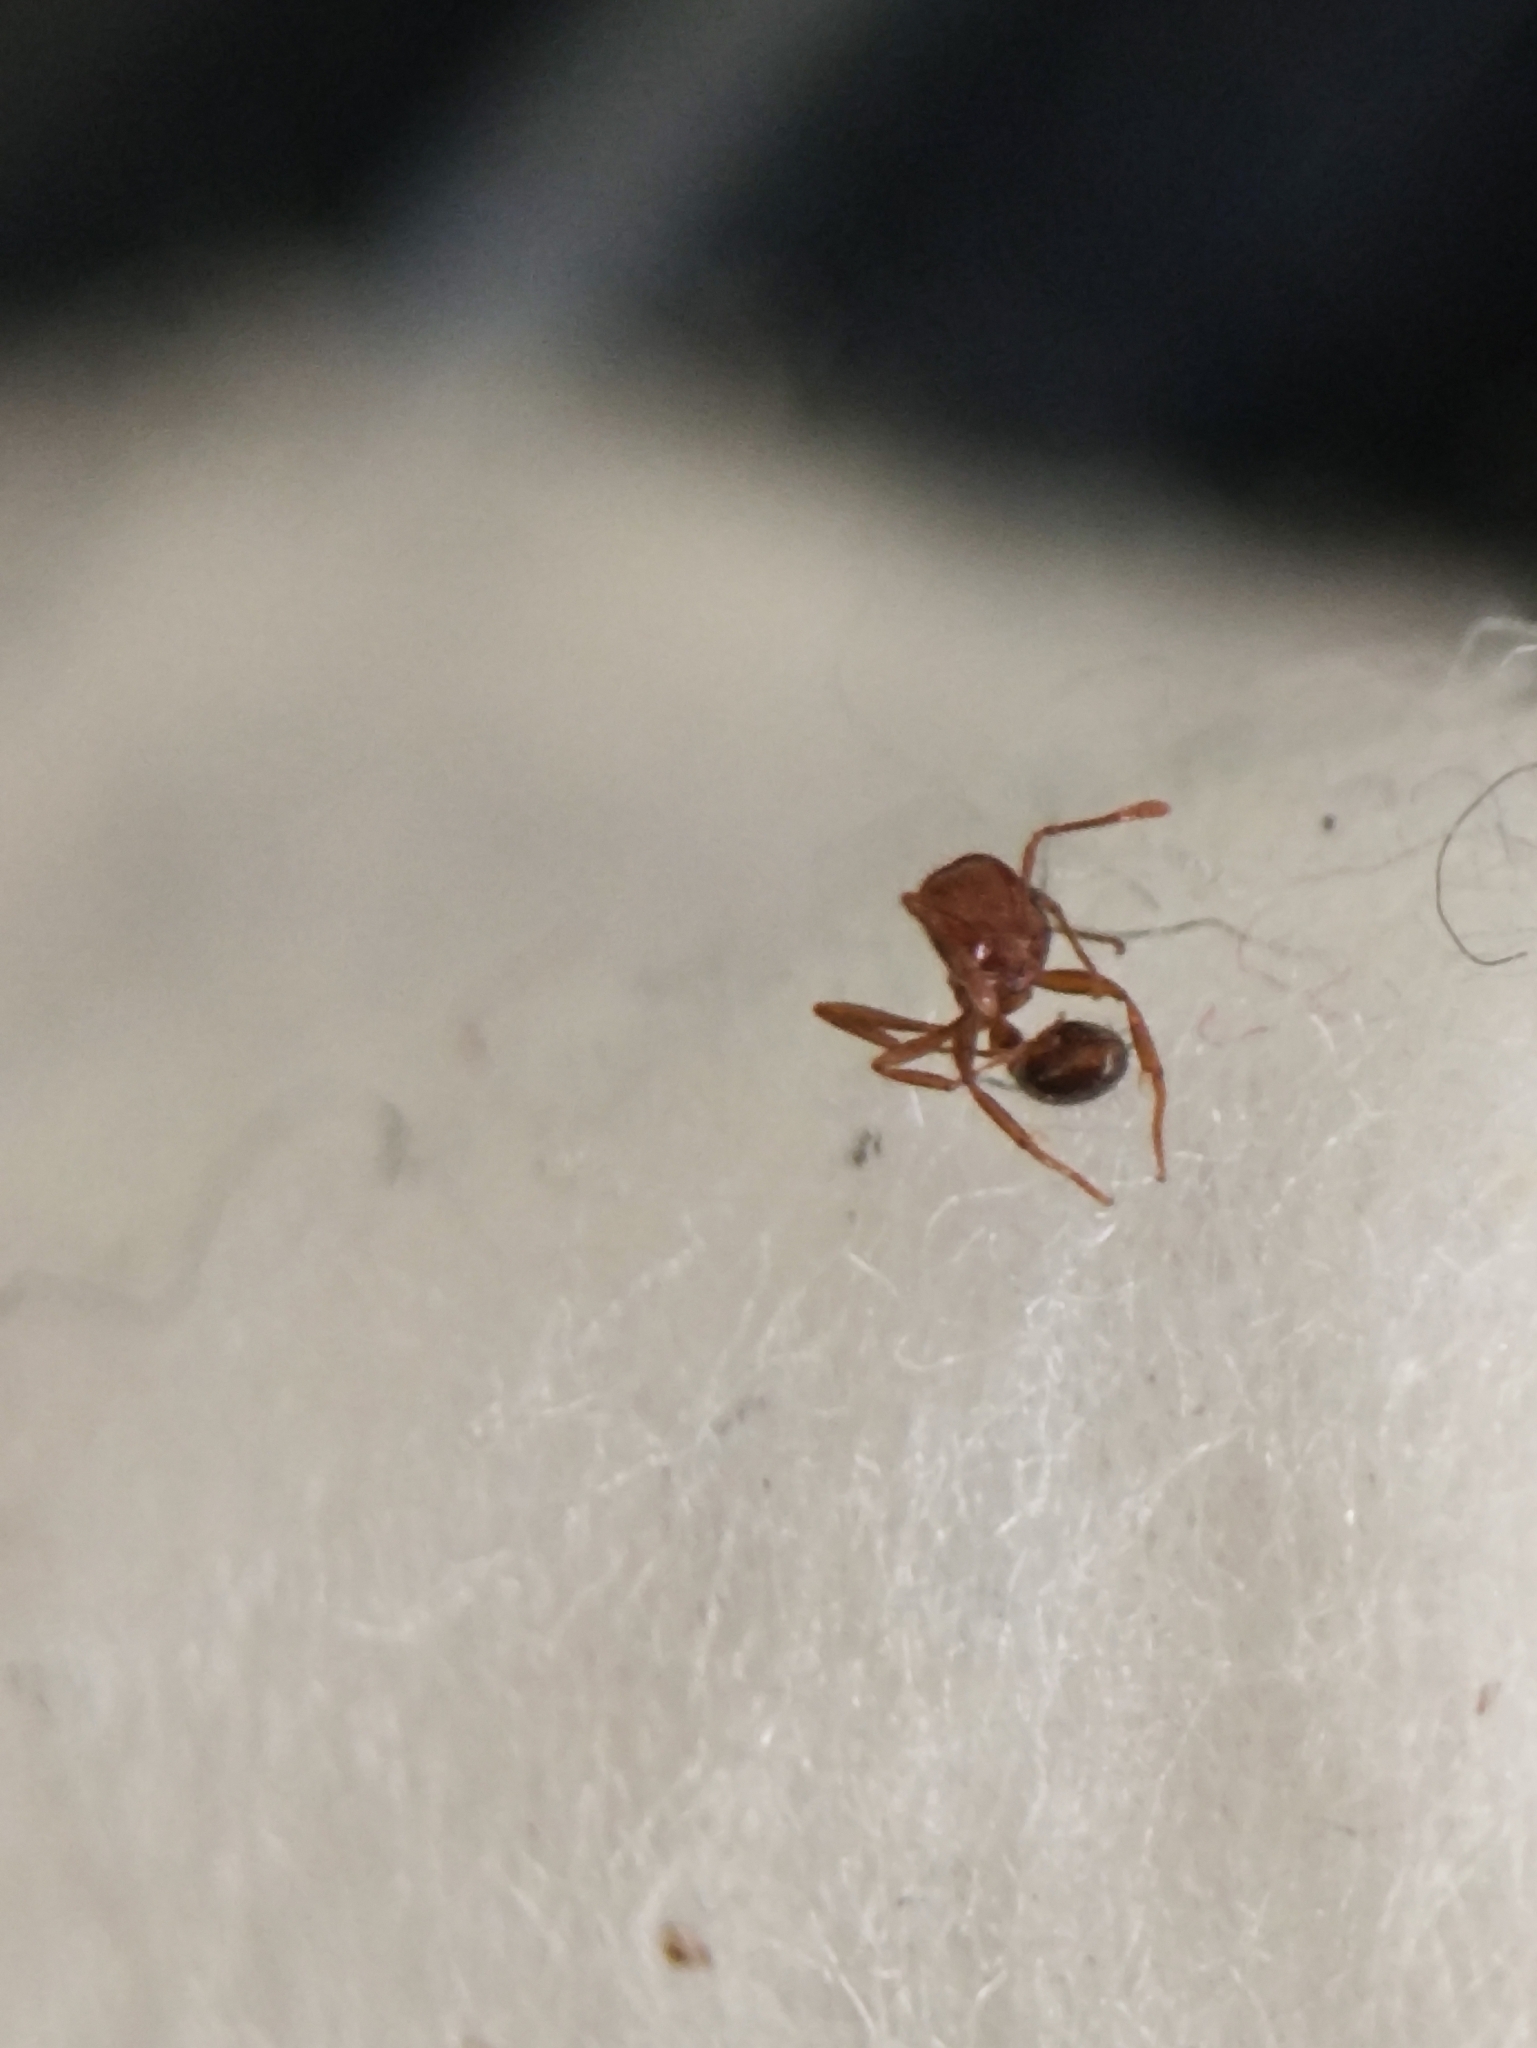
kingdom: Animalia
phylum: Arthropoda
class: Insecta
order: Hymenoptera
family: Formicidae
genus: Solenopsis
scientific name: Solenopsis geminata
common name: Tropical fire ant
